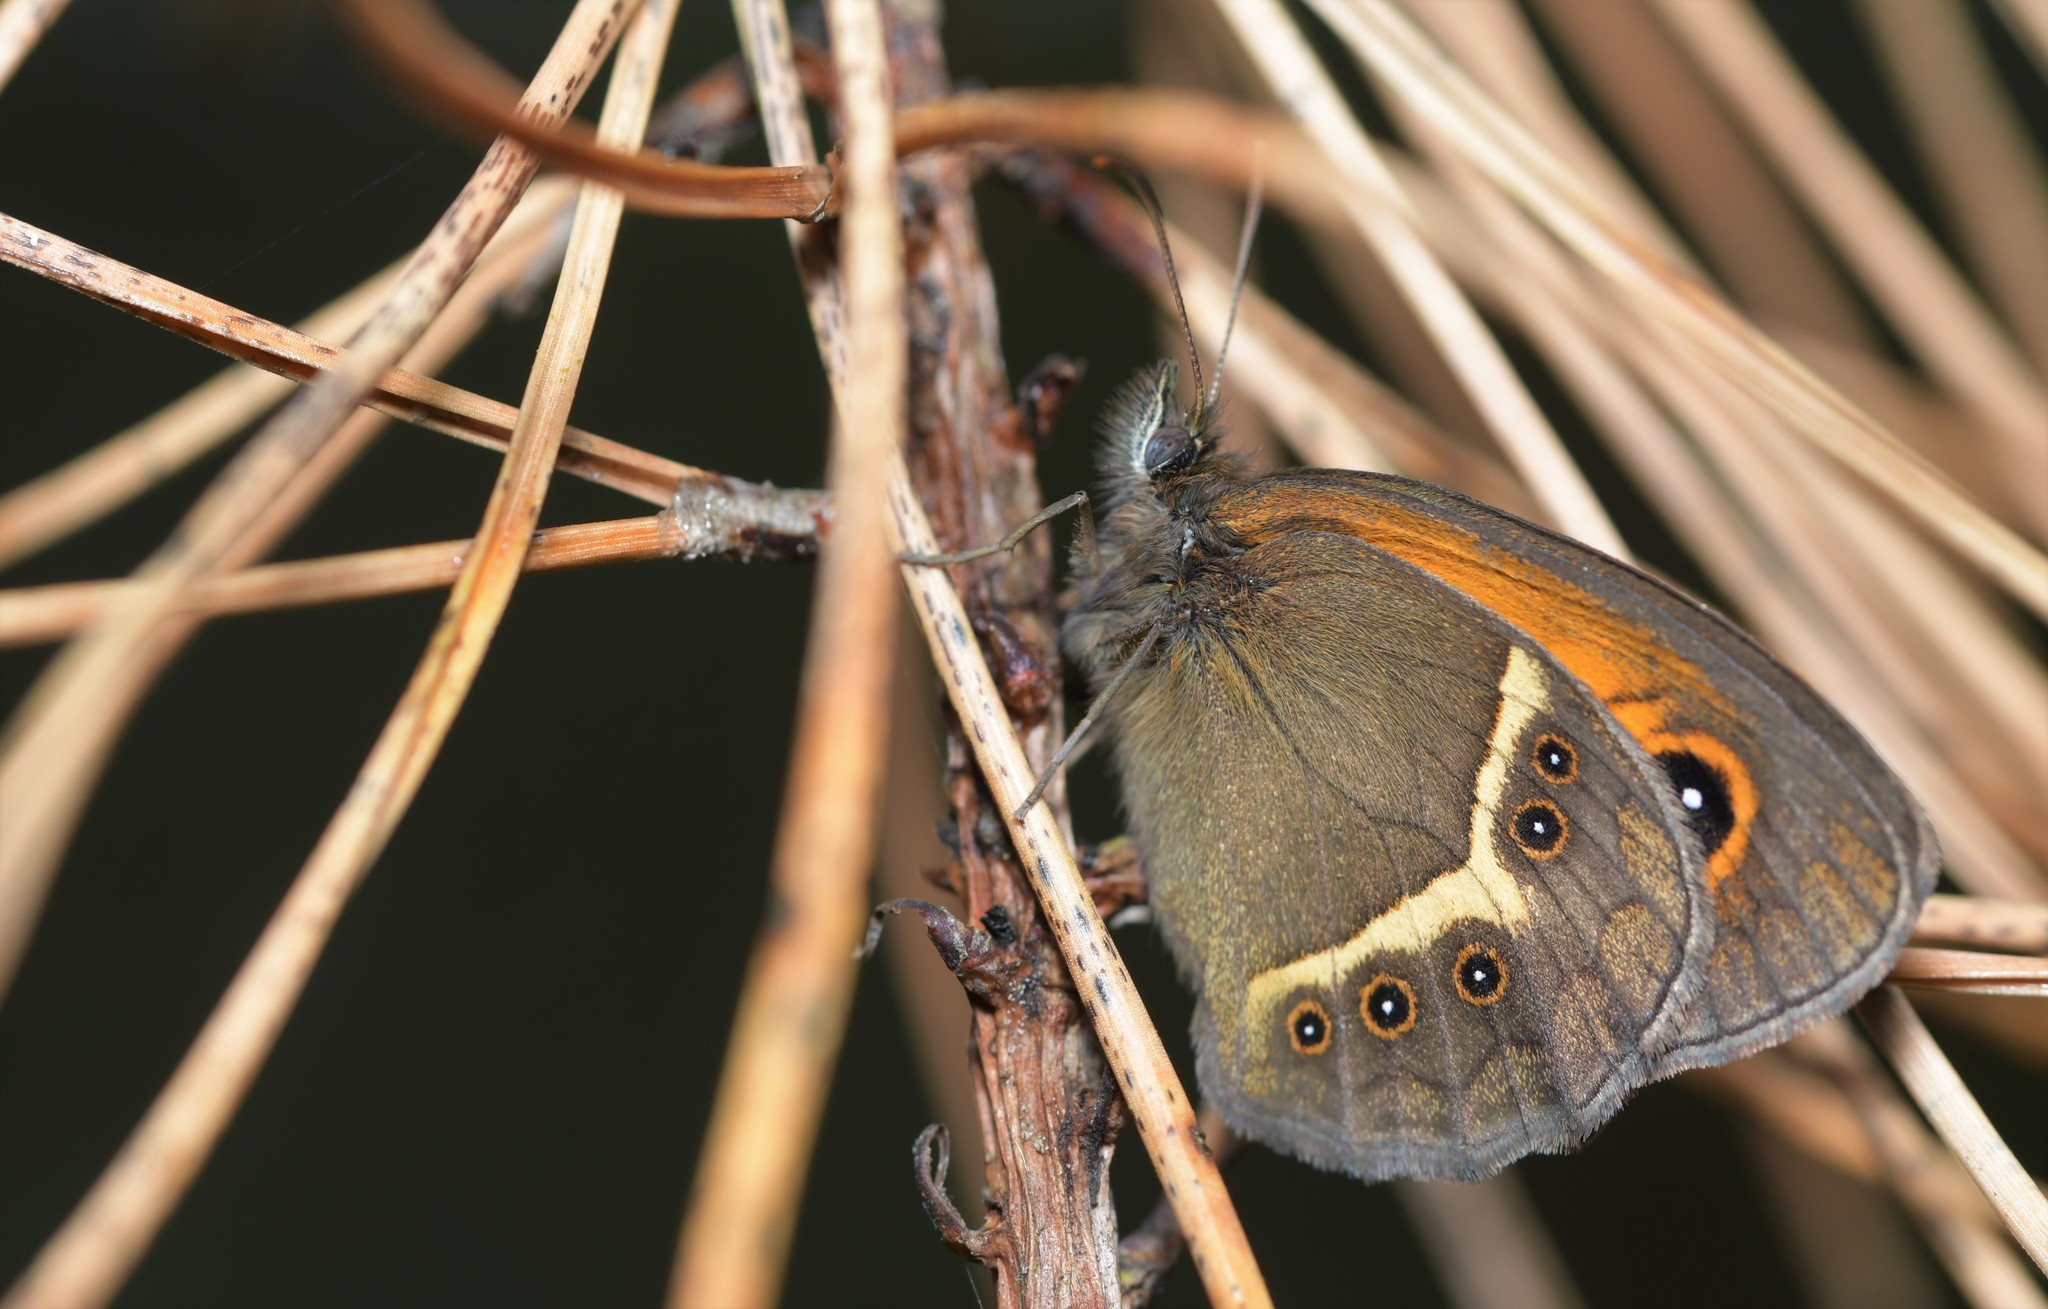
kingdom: Animalia
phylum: Arthropoda
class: Insecta
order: Lepidoptera
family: Nymphalidae
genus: Pyronia
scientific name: Pyronia bathseba
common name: Spanish gatekeeper
